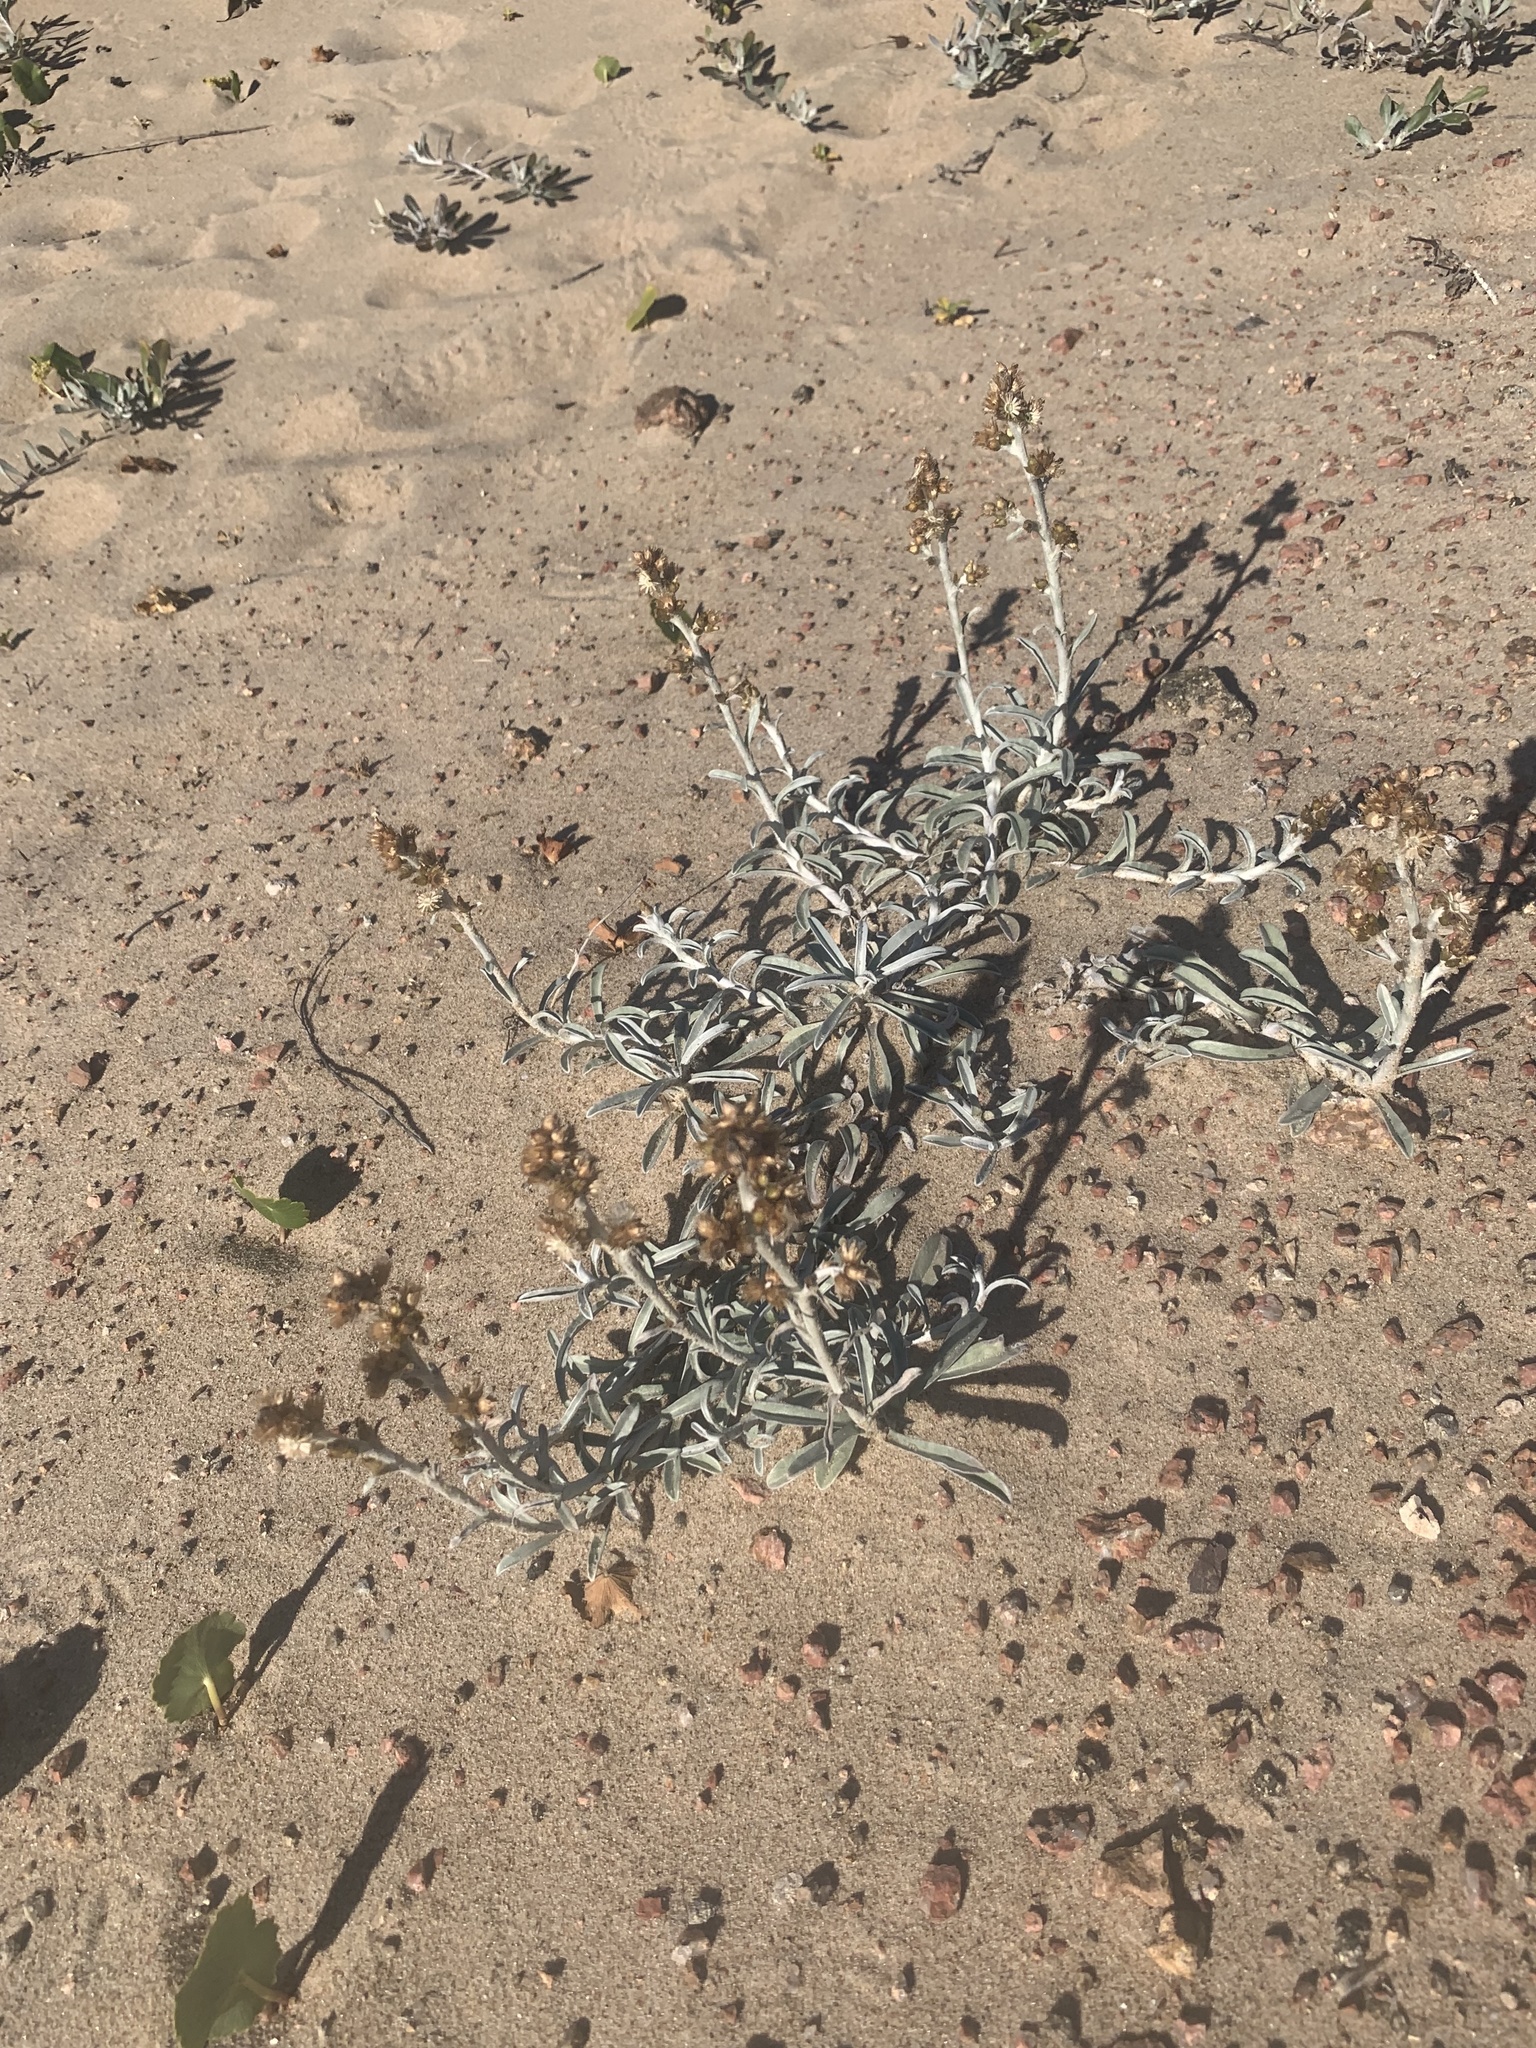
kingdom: Plantae
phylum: Tracheophyta
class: Magnoliopsida
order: Asterales
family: Asteraceae
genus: Gamochaeta
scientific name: Gamochaeta falcata
